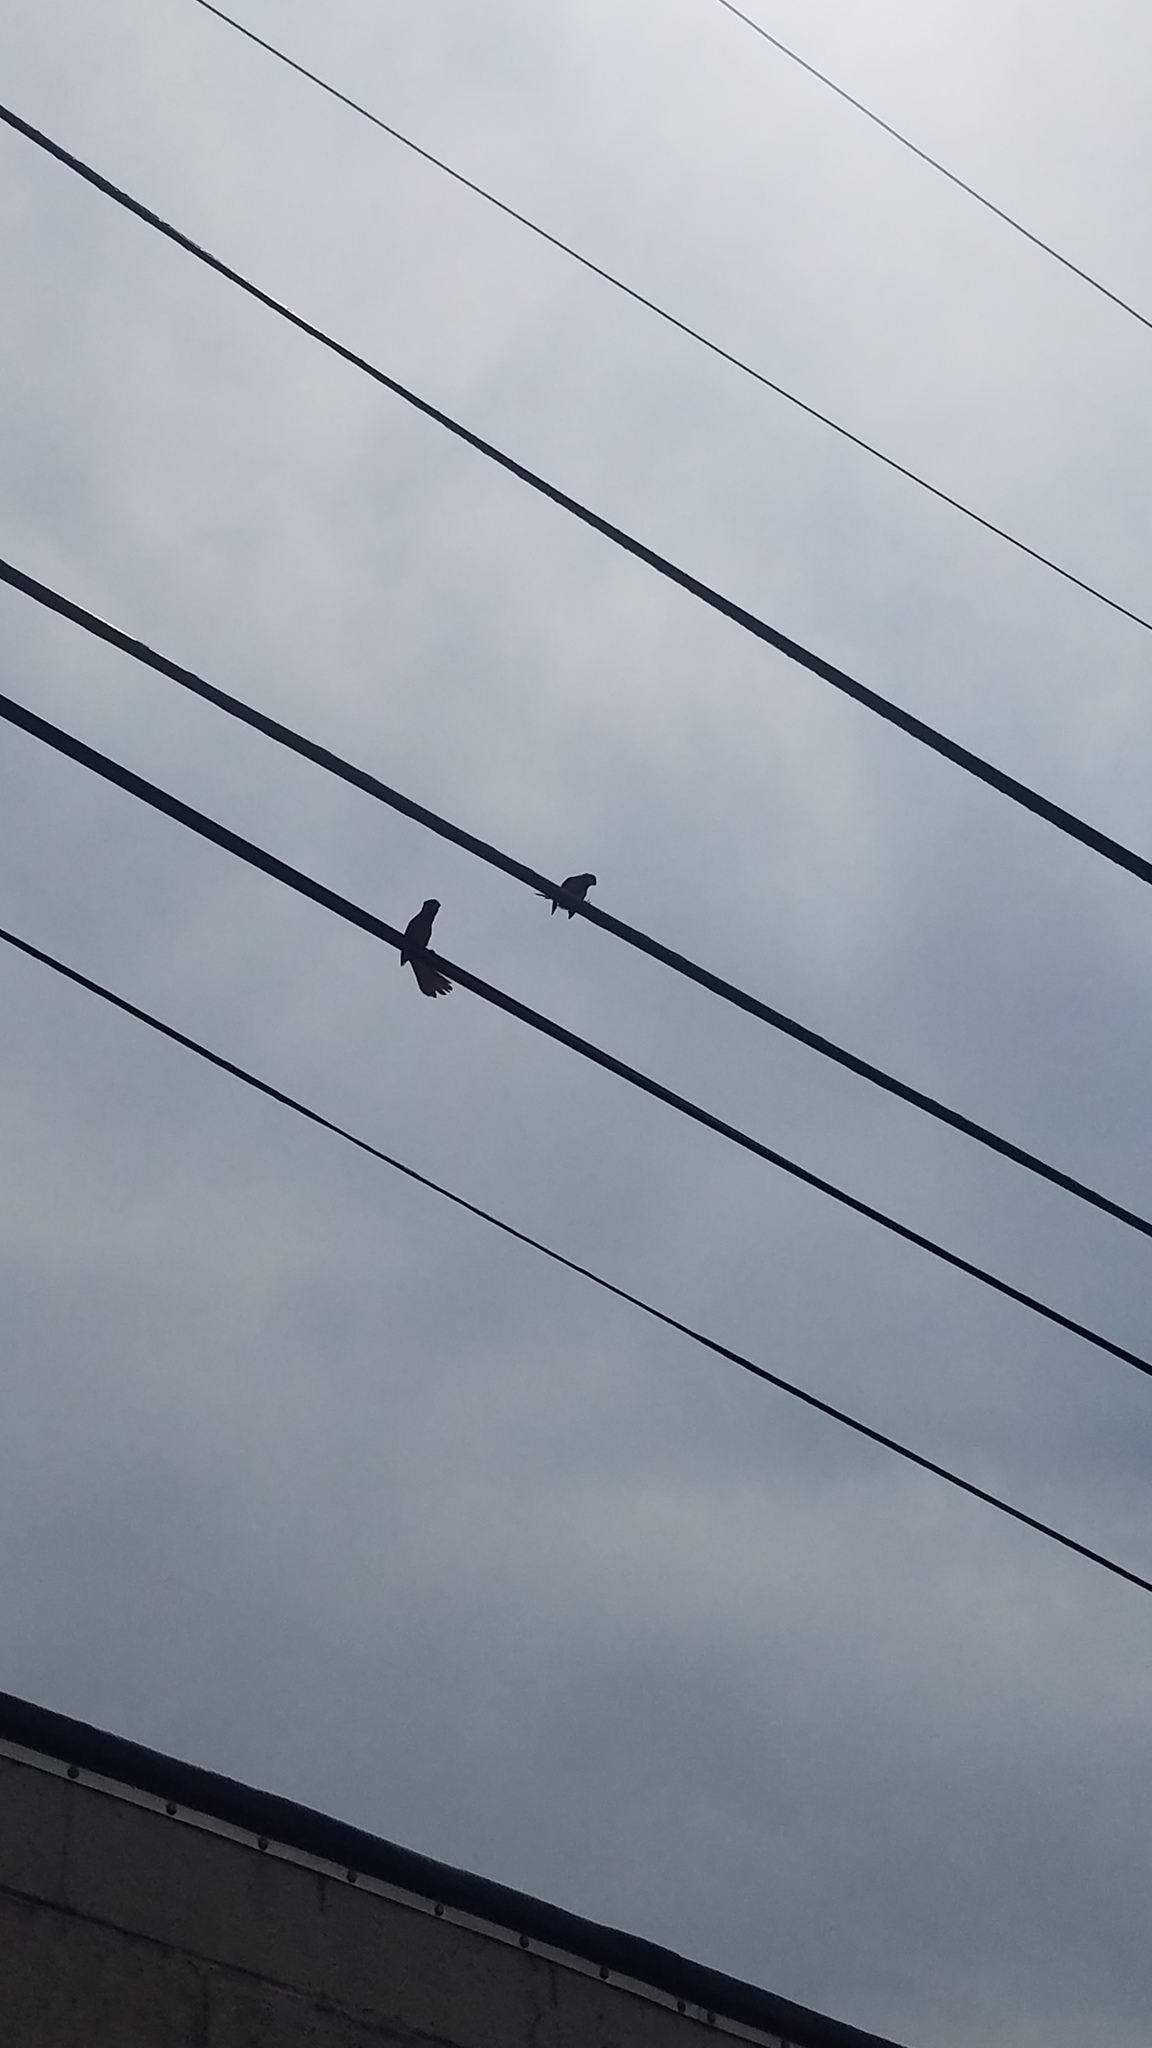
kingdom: Animalia
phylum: Chordata
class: Aves
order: Passeriformes
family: Cardinalidae
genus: Cardinalis
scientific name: Cardinalis cardinalis
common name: Northern cardinal
